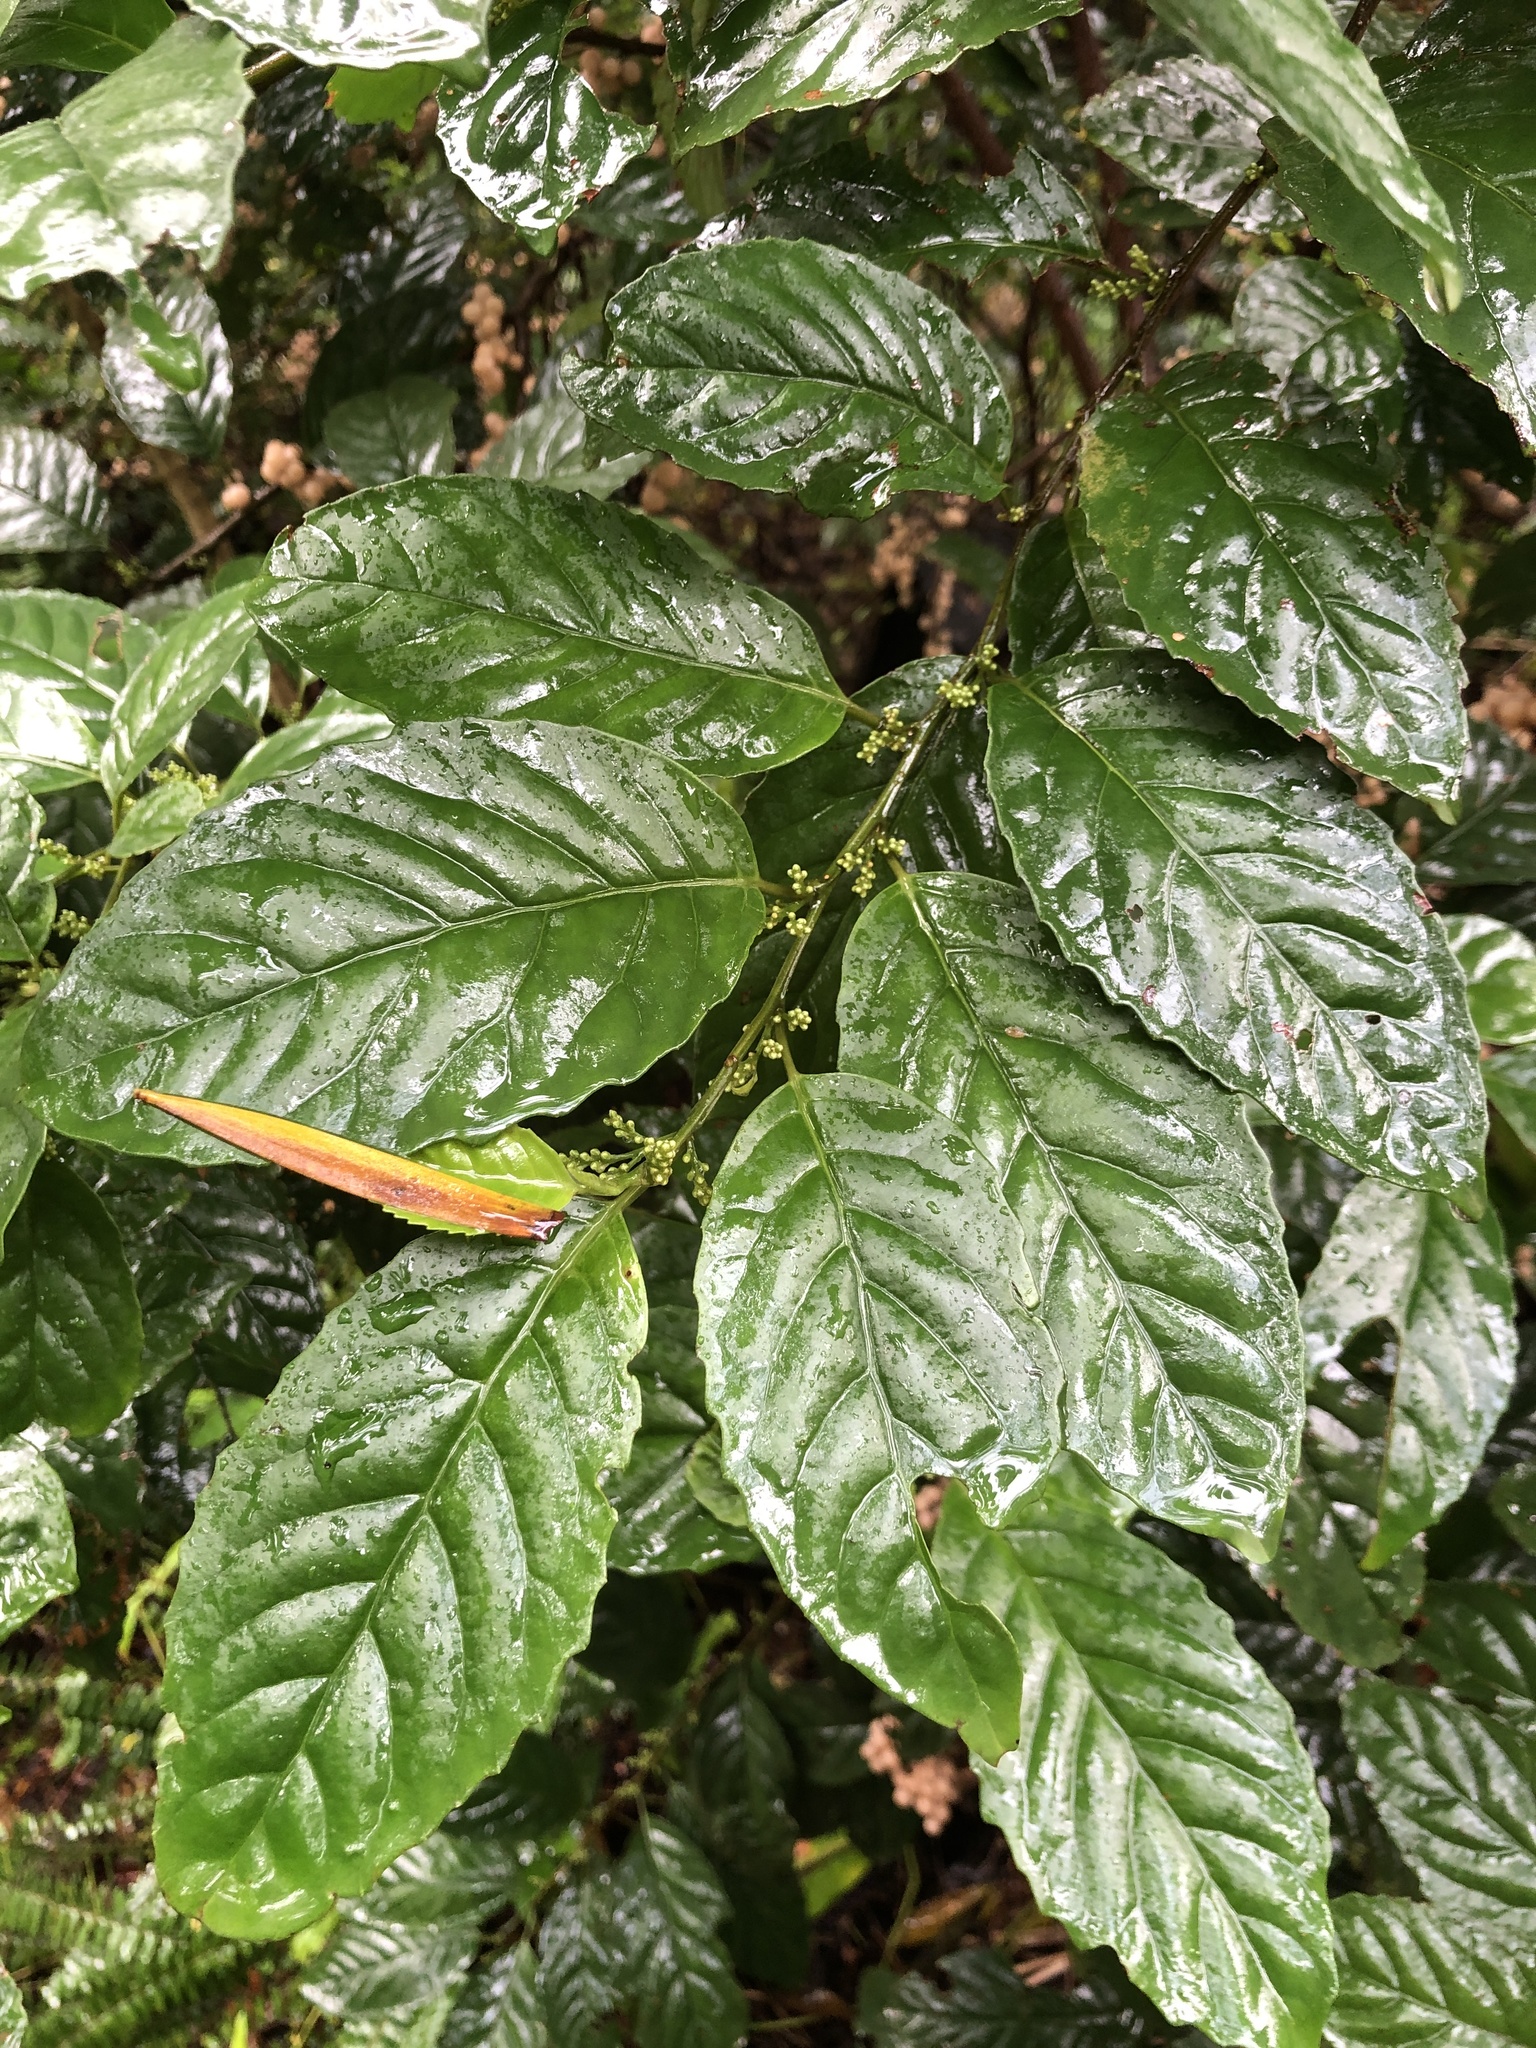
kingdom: Plantae
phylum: Tracheophyta
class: Magnoliopsida
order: Ericales
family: Primulaceae
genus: Maesa
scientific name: Maesa perlaria
